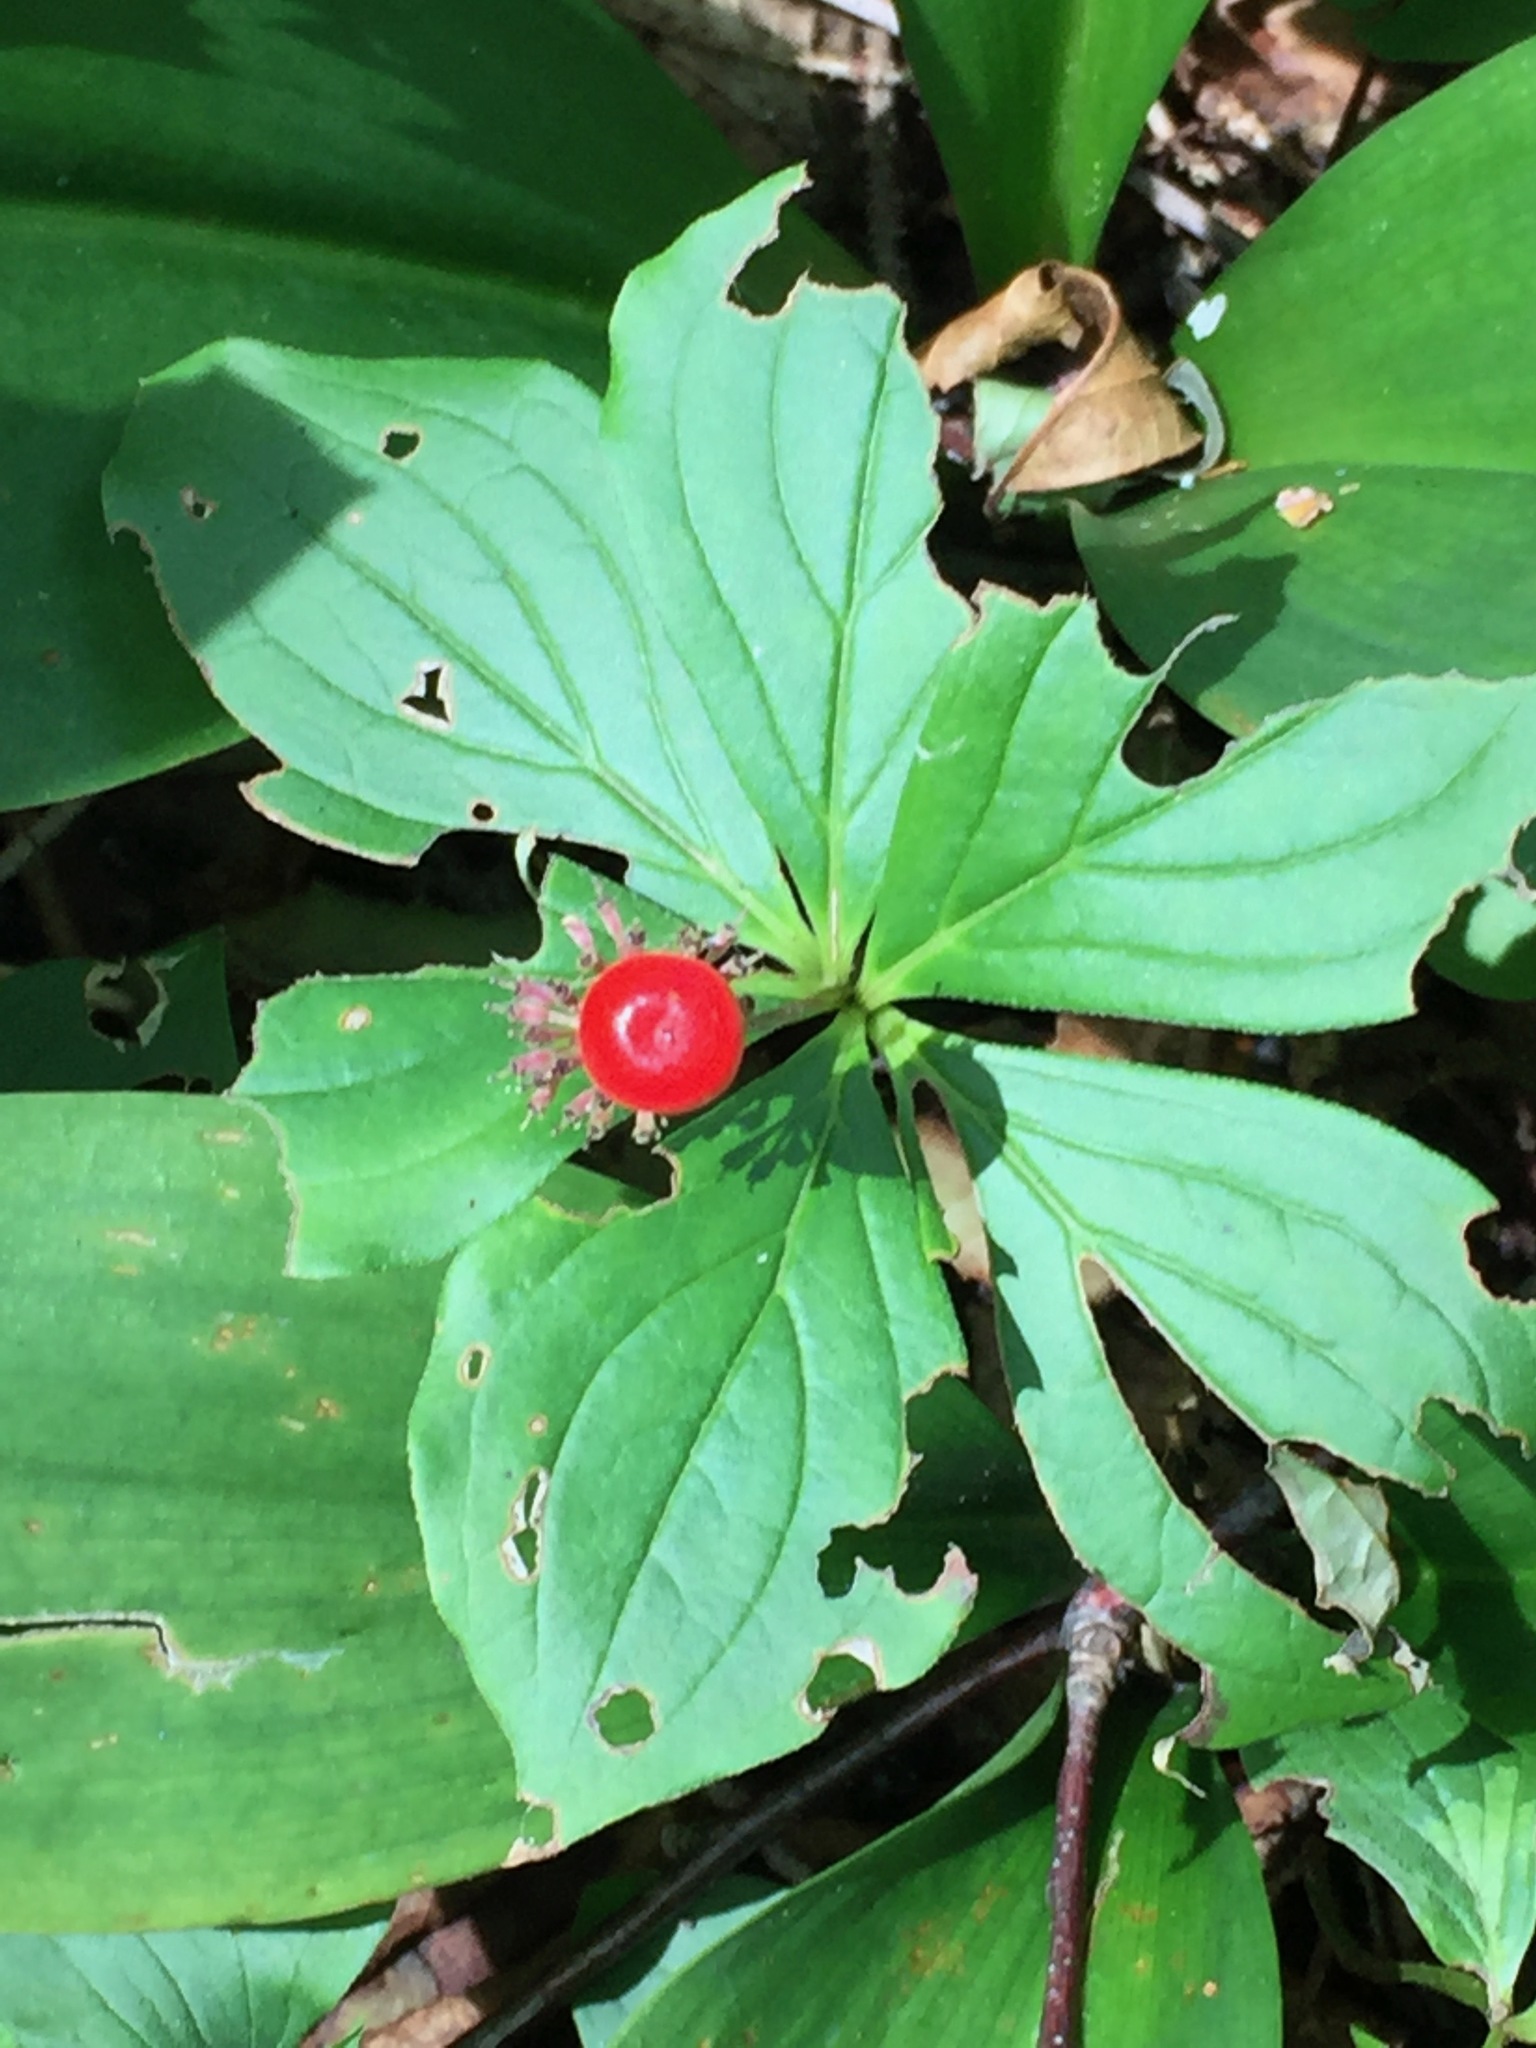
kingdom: Plantae
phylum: Tracheophyta
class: Magnoliopsida
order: Cornales
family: Cornaceae
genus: Cornus
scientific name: Cornus canadensis
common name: Creeping dogwood
